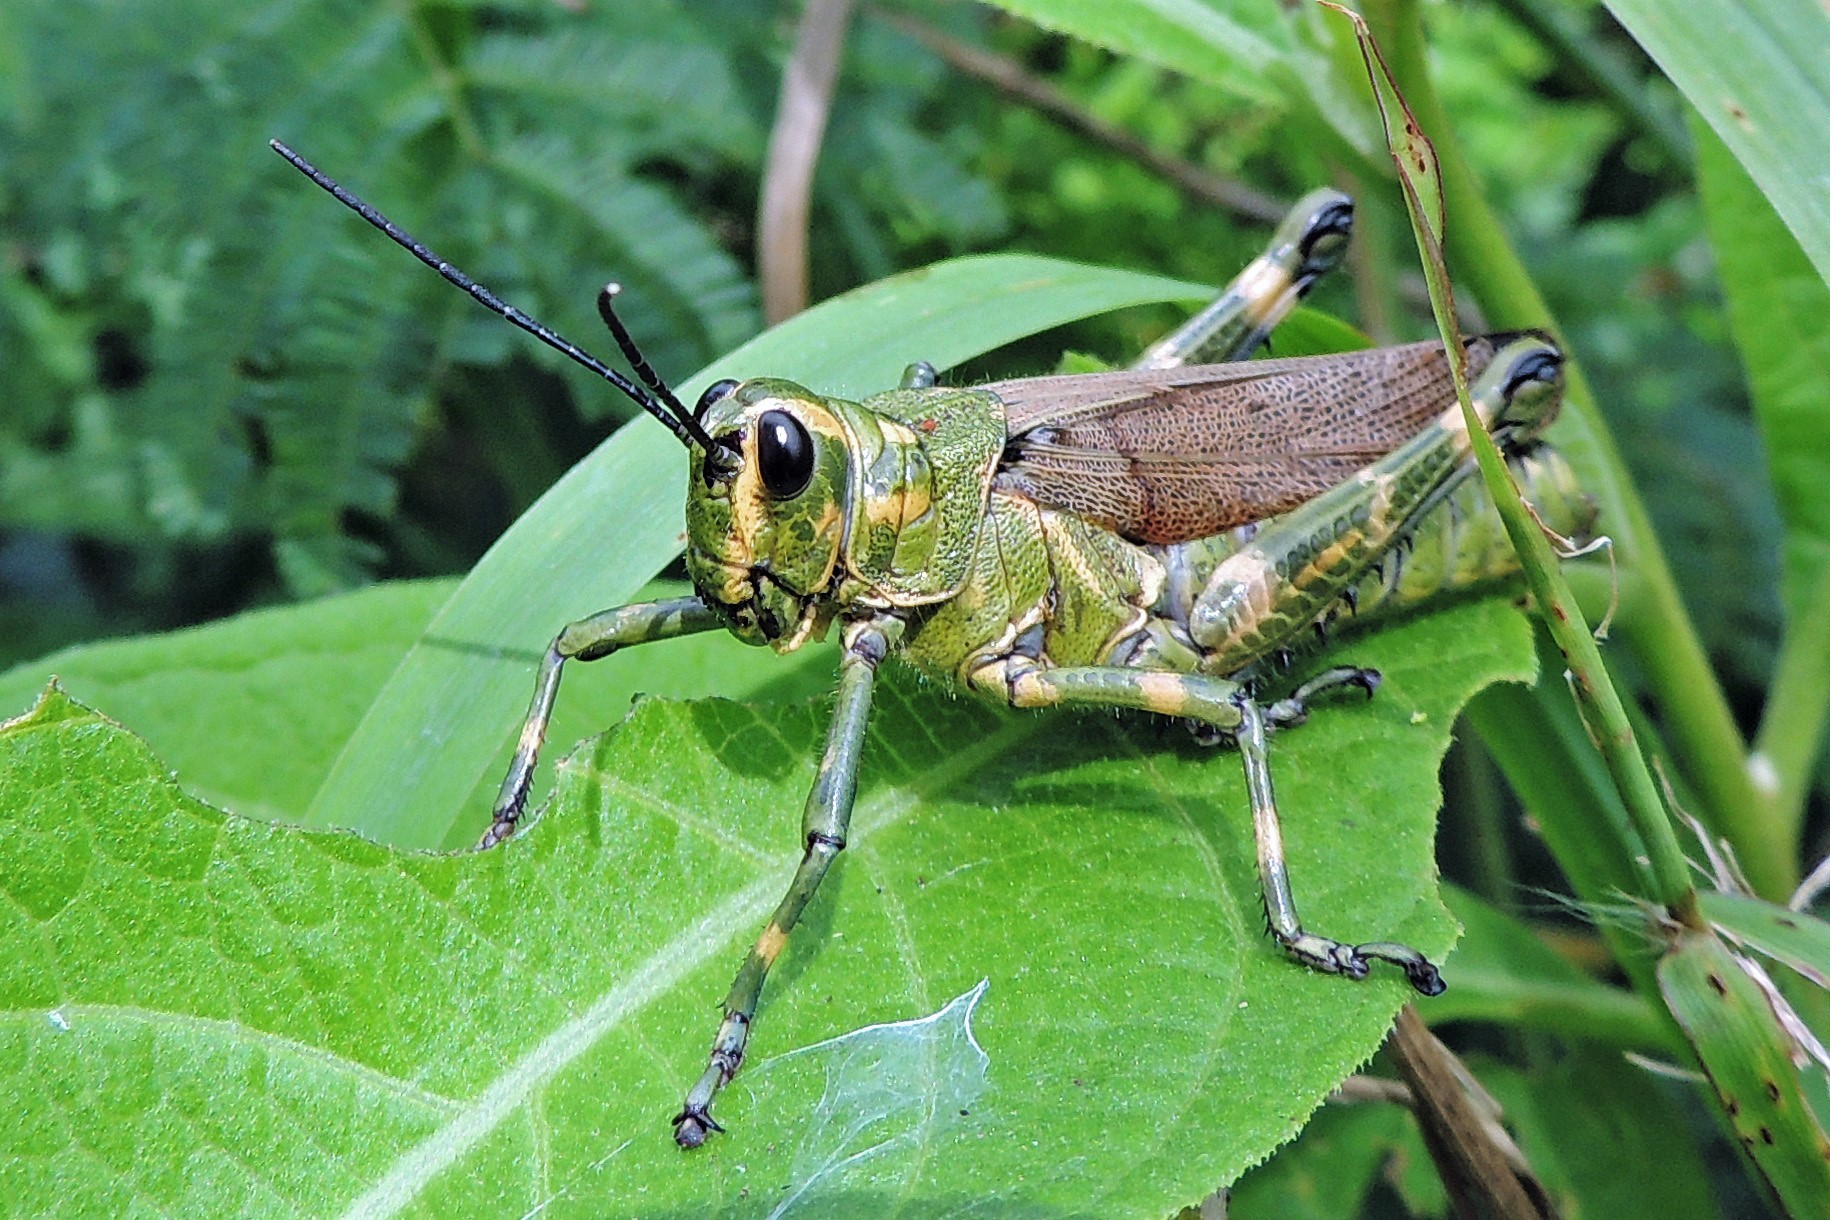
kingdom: Animalia
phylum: Arthropoda
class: Insecta
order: Orthoptera
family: Romaleidae
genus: Chromacris
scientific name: Chromacris speciosa
